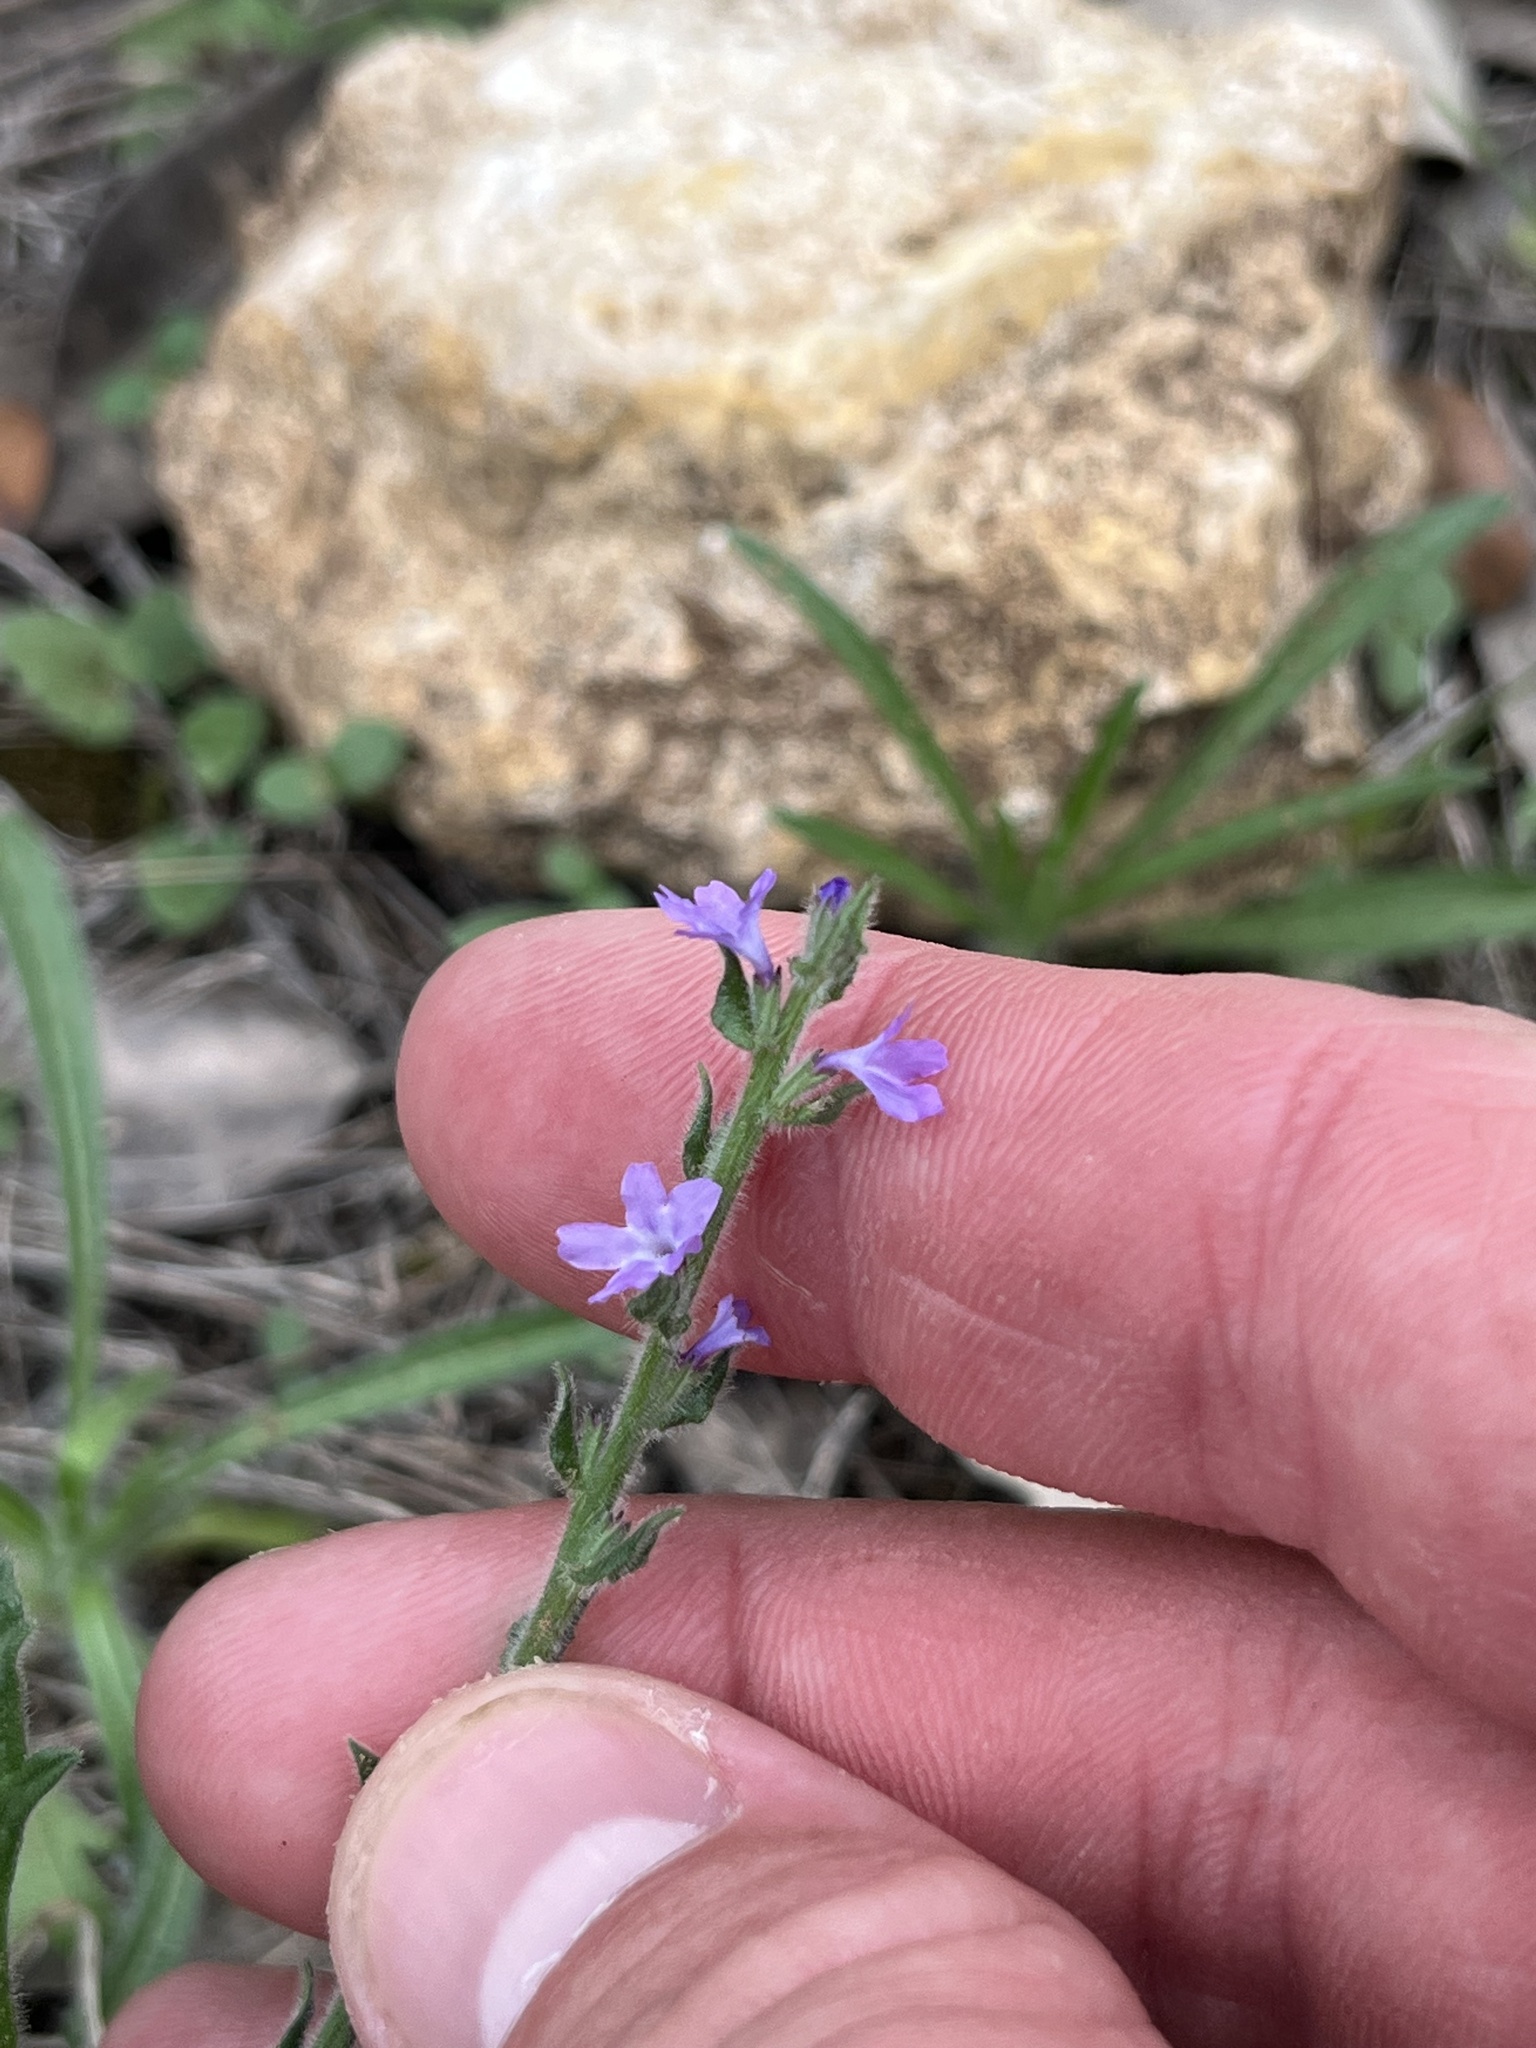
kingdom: Plantae
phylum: Tracheophyta
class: Magnoliopsida
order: Lamiales
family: Verbenaceae
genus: Verbena
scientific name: Verbena canescens
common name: Gray vervain
